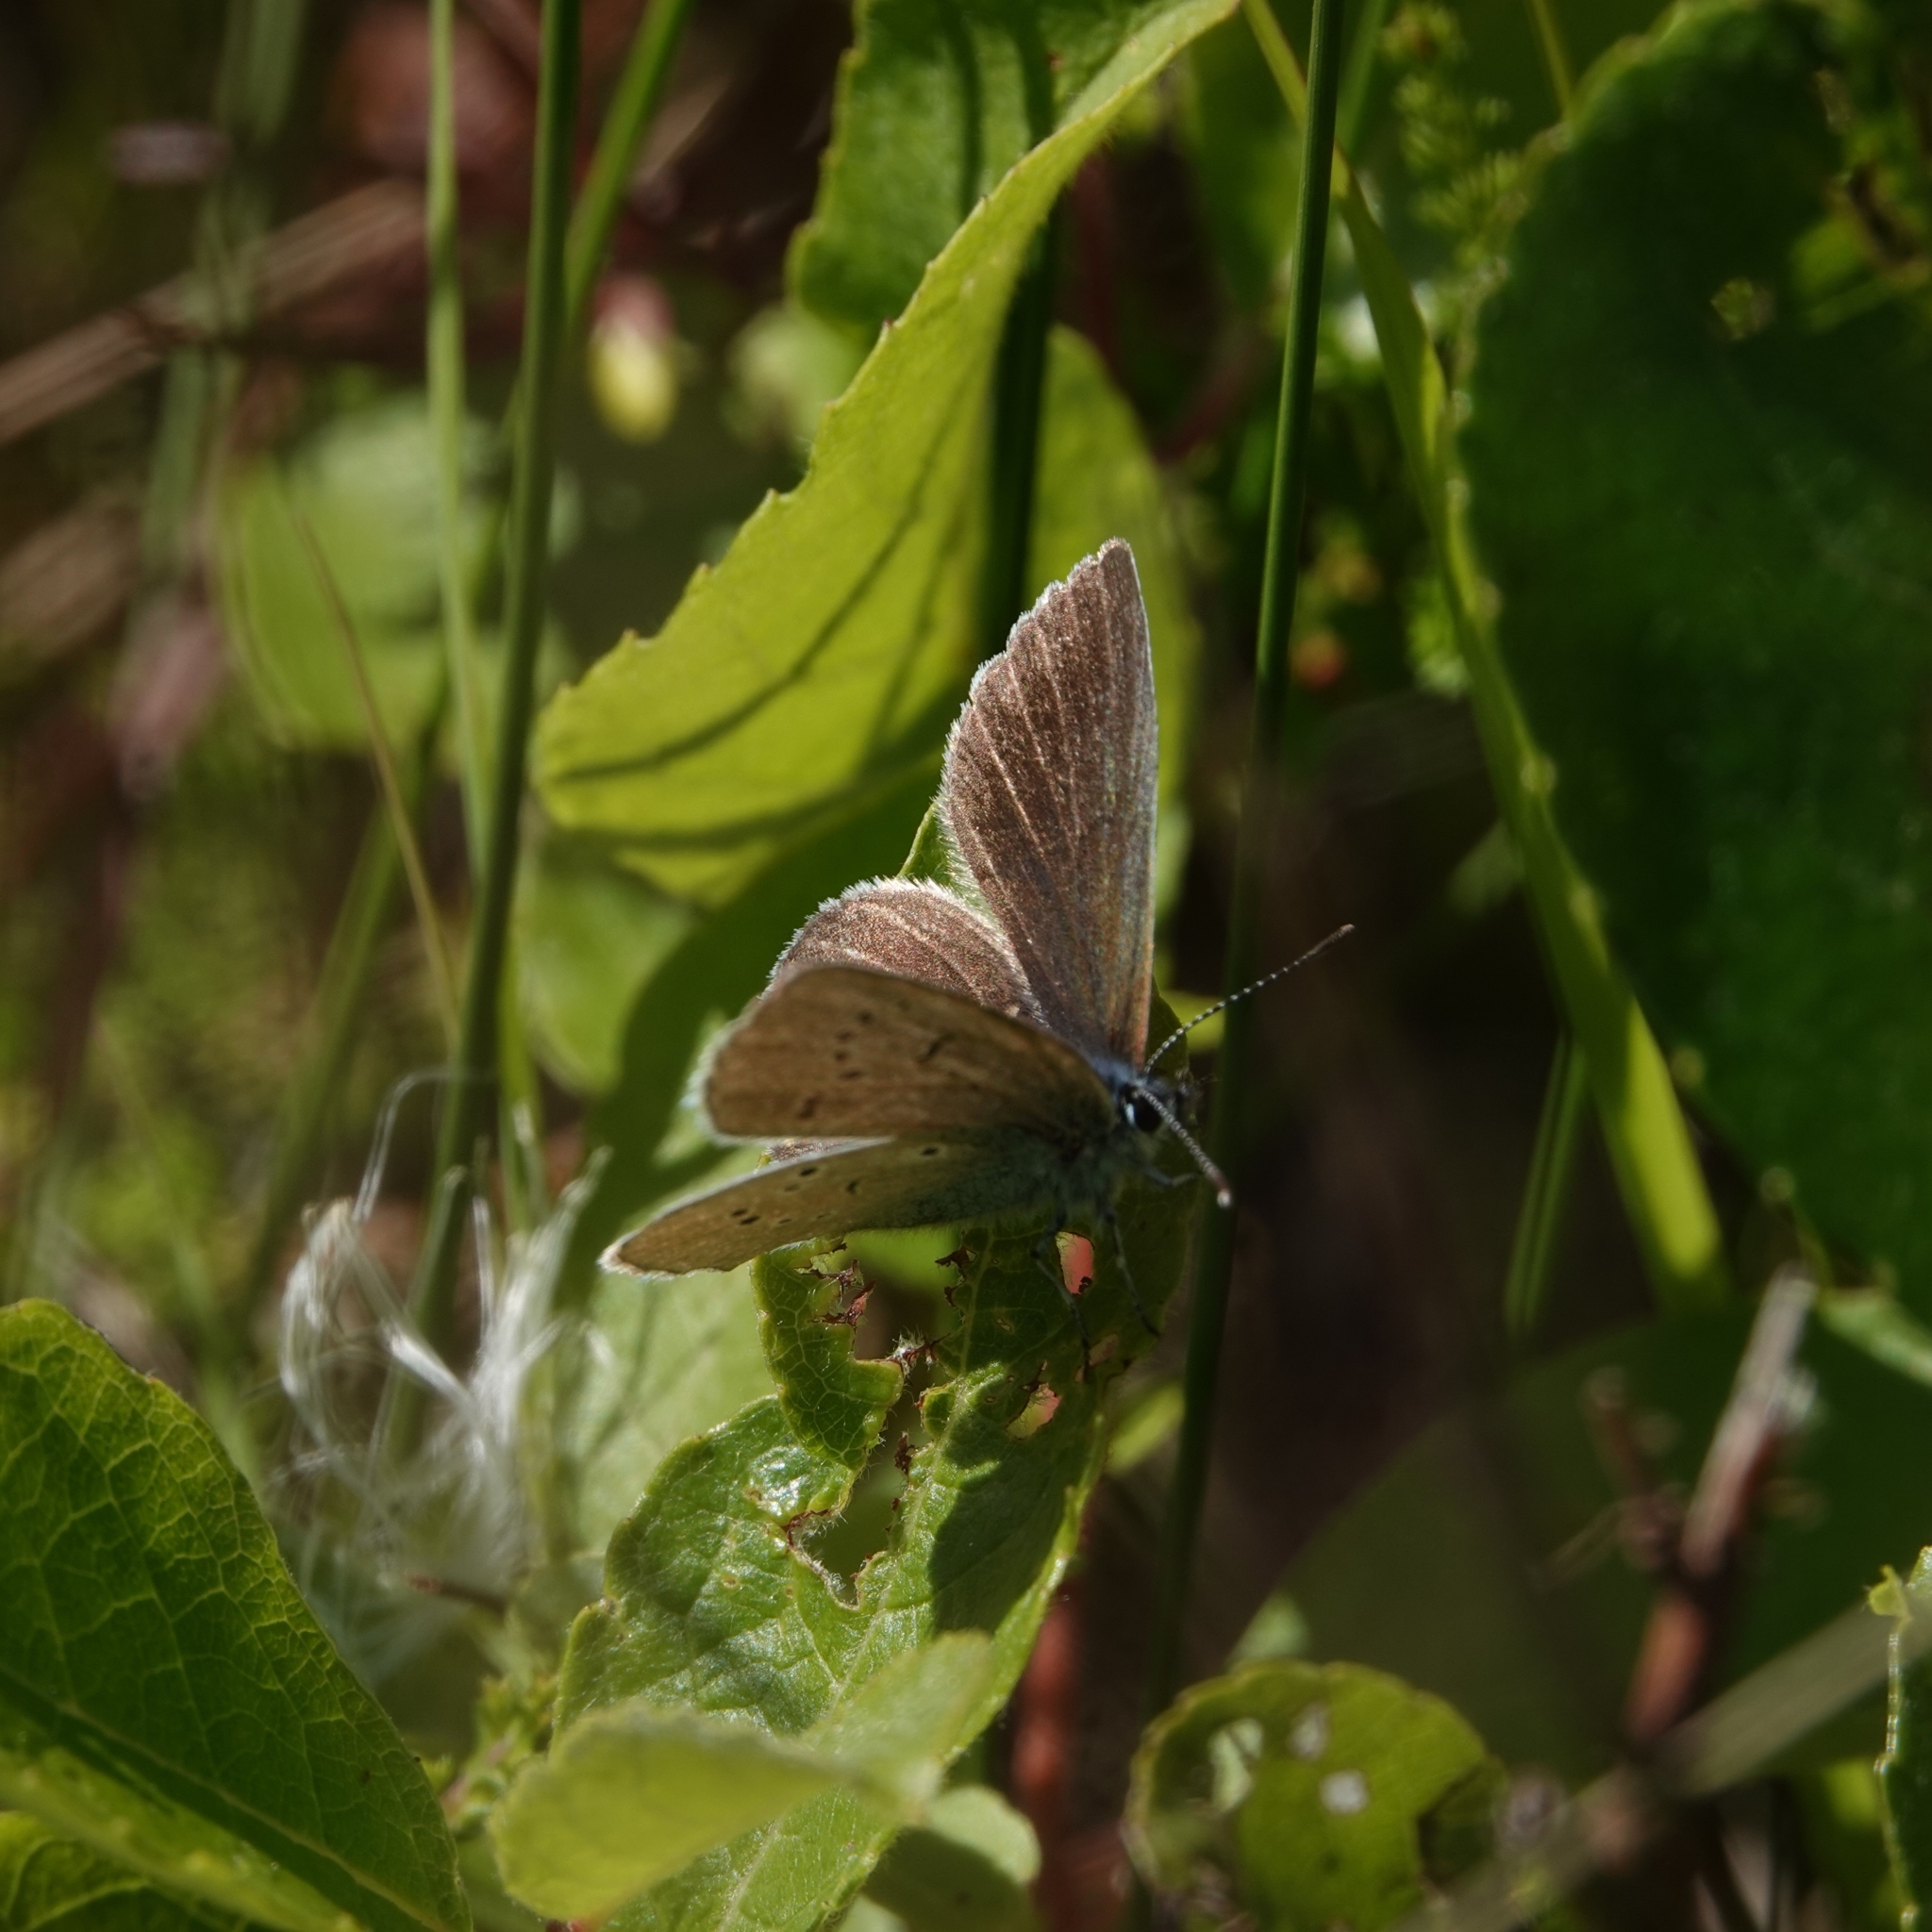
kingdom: Animalia
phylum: Arthropoda
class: Insecta
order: Lepidoptera
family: Lycaenidae
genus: Cyaniris
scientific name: Cyaniris semiargus
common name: Mazarine blue
